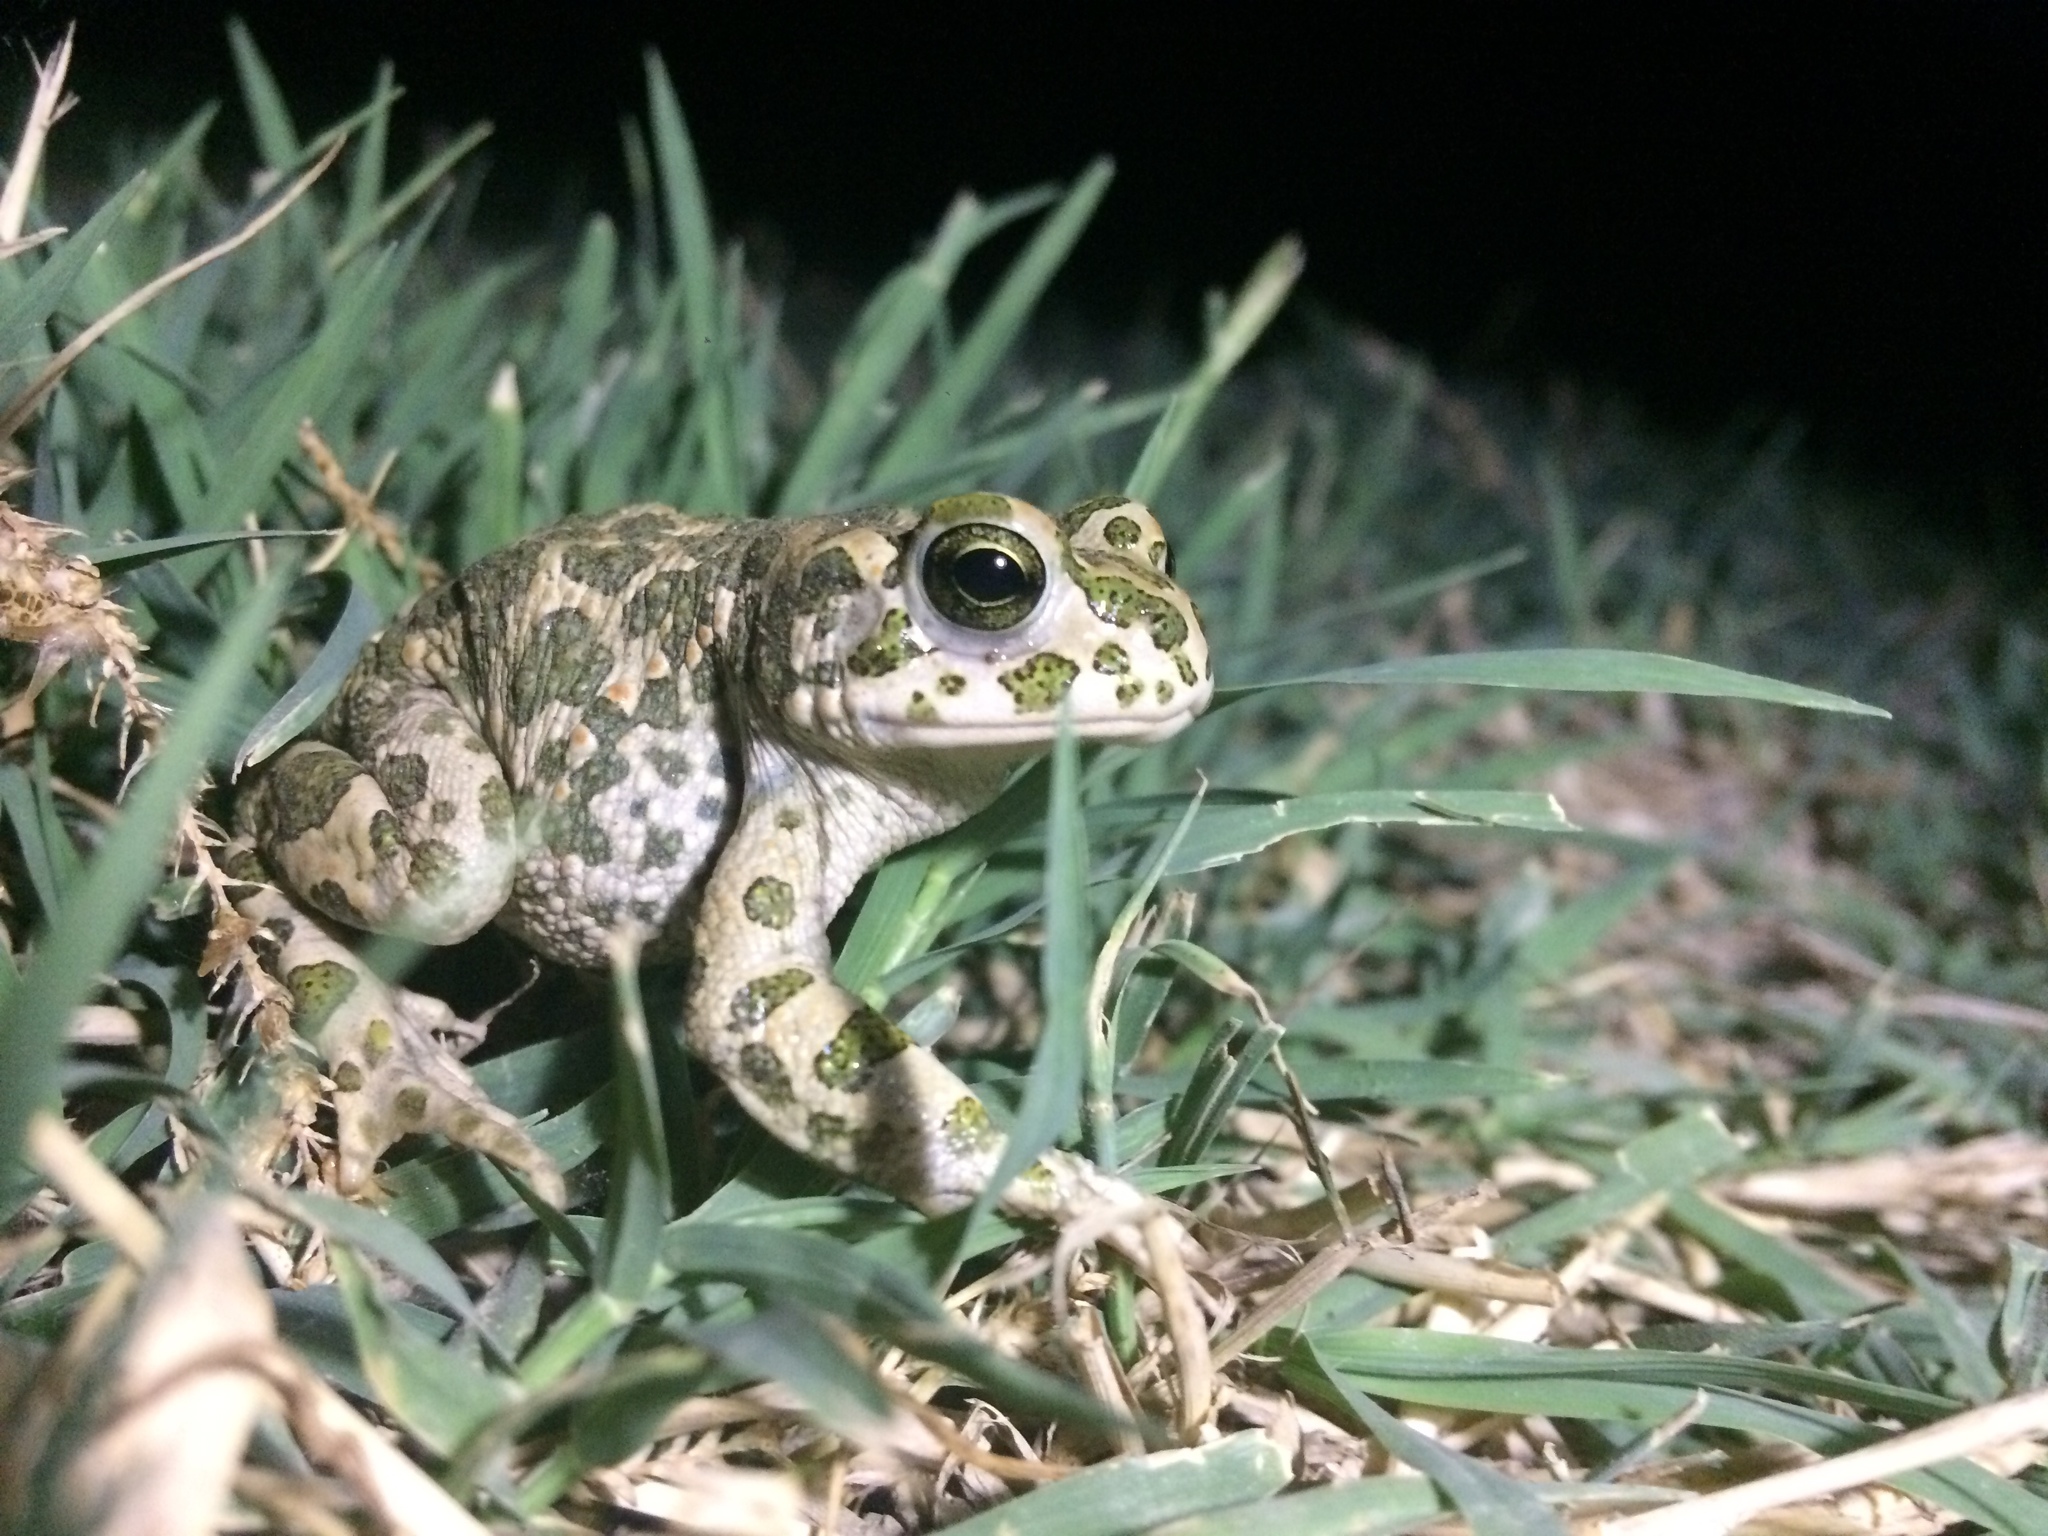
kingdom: Animalia
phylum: Chordata
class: Amphibia
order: Anura
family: Bufonidae
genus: Bufotes
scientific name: Bufotes viridis
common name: European green toad
